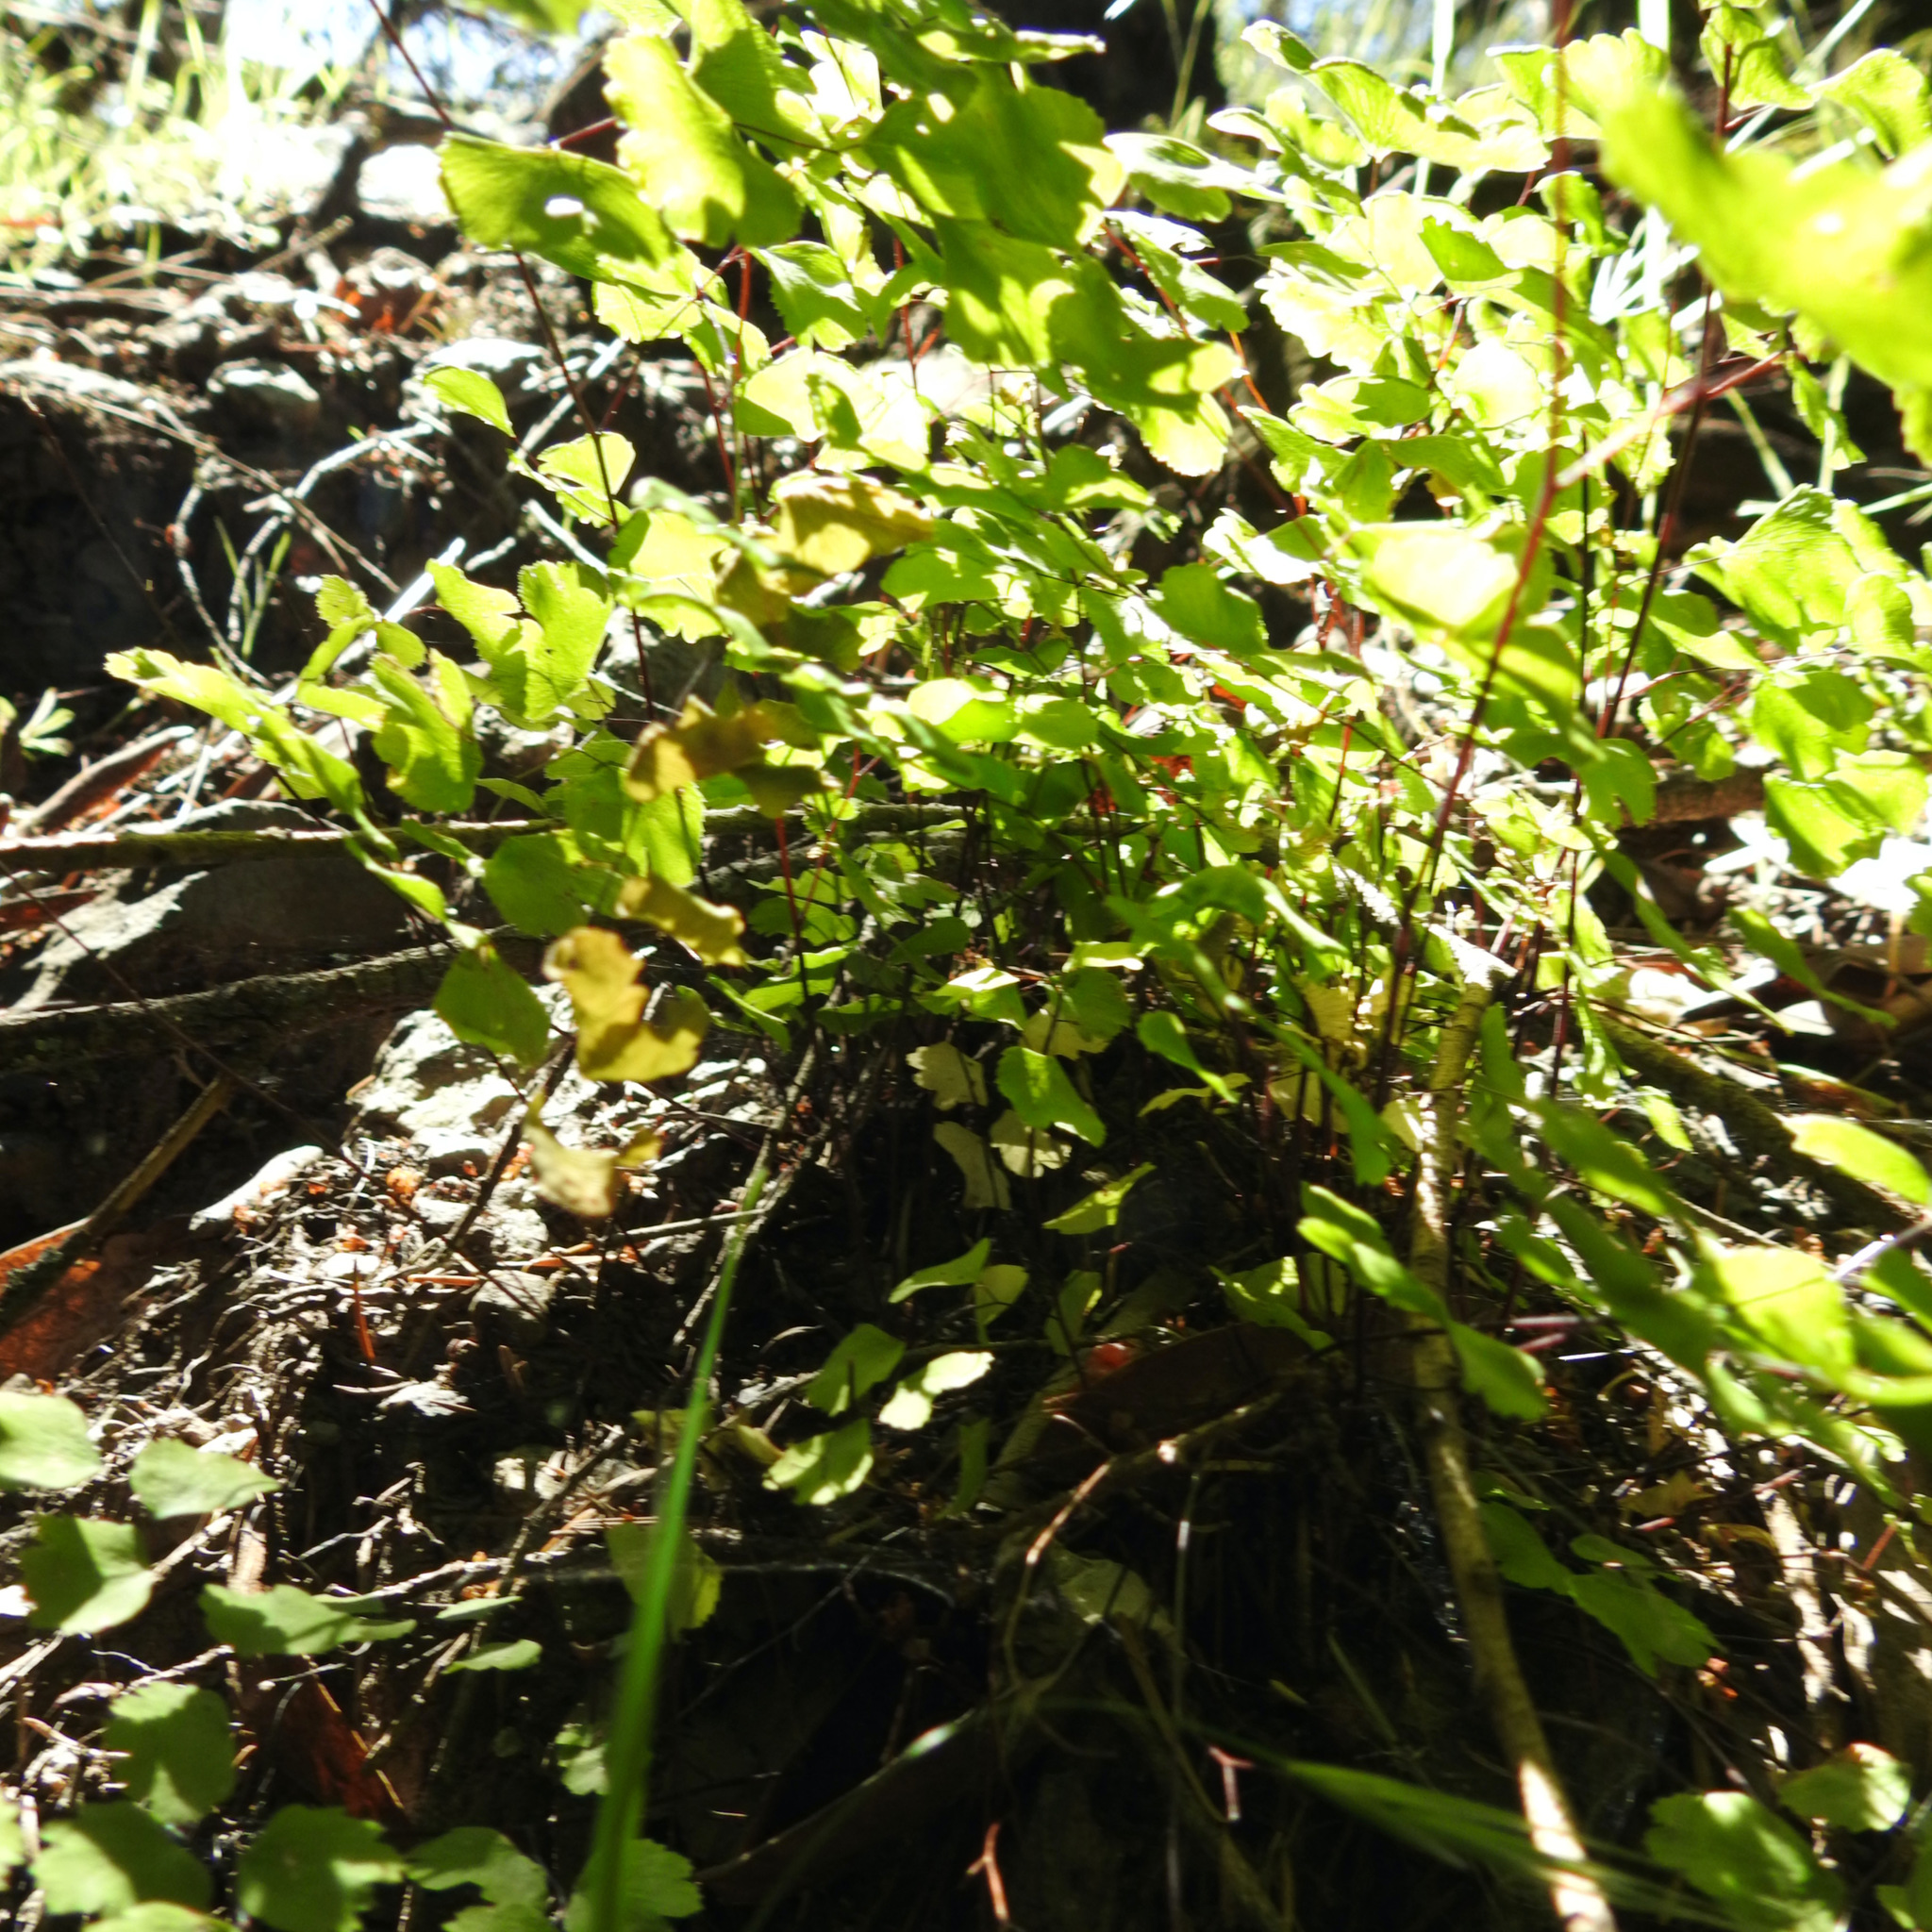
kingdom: Plantae
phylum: Tracheophyta
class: Polypodiopsida
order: Polypodiales
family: Pteridaceae
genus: Adiantum
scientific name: Adiantum jordanii
